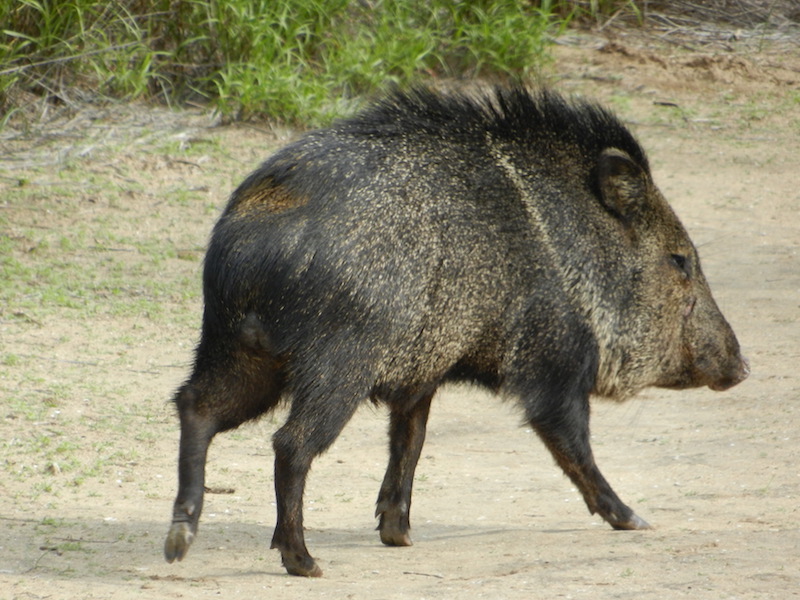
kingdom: Animalia
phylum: Chordata
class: Mammalia
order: Artiodactyla
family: Tayassuidae
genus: Pecari
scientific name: Pecari tajacu
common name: Collared peccary
